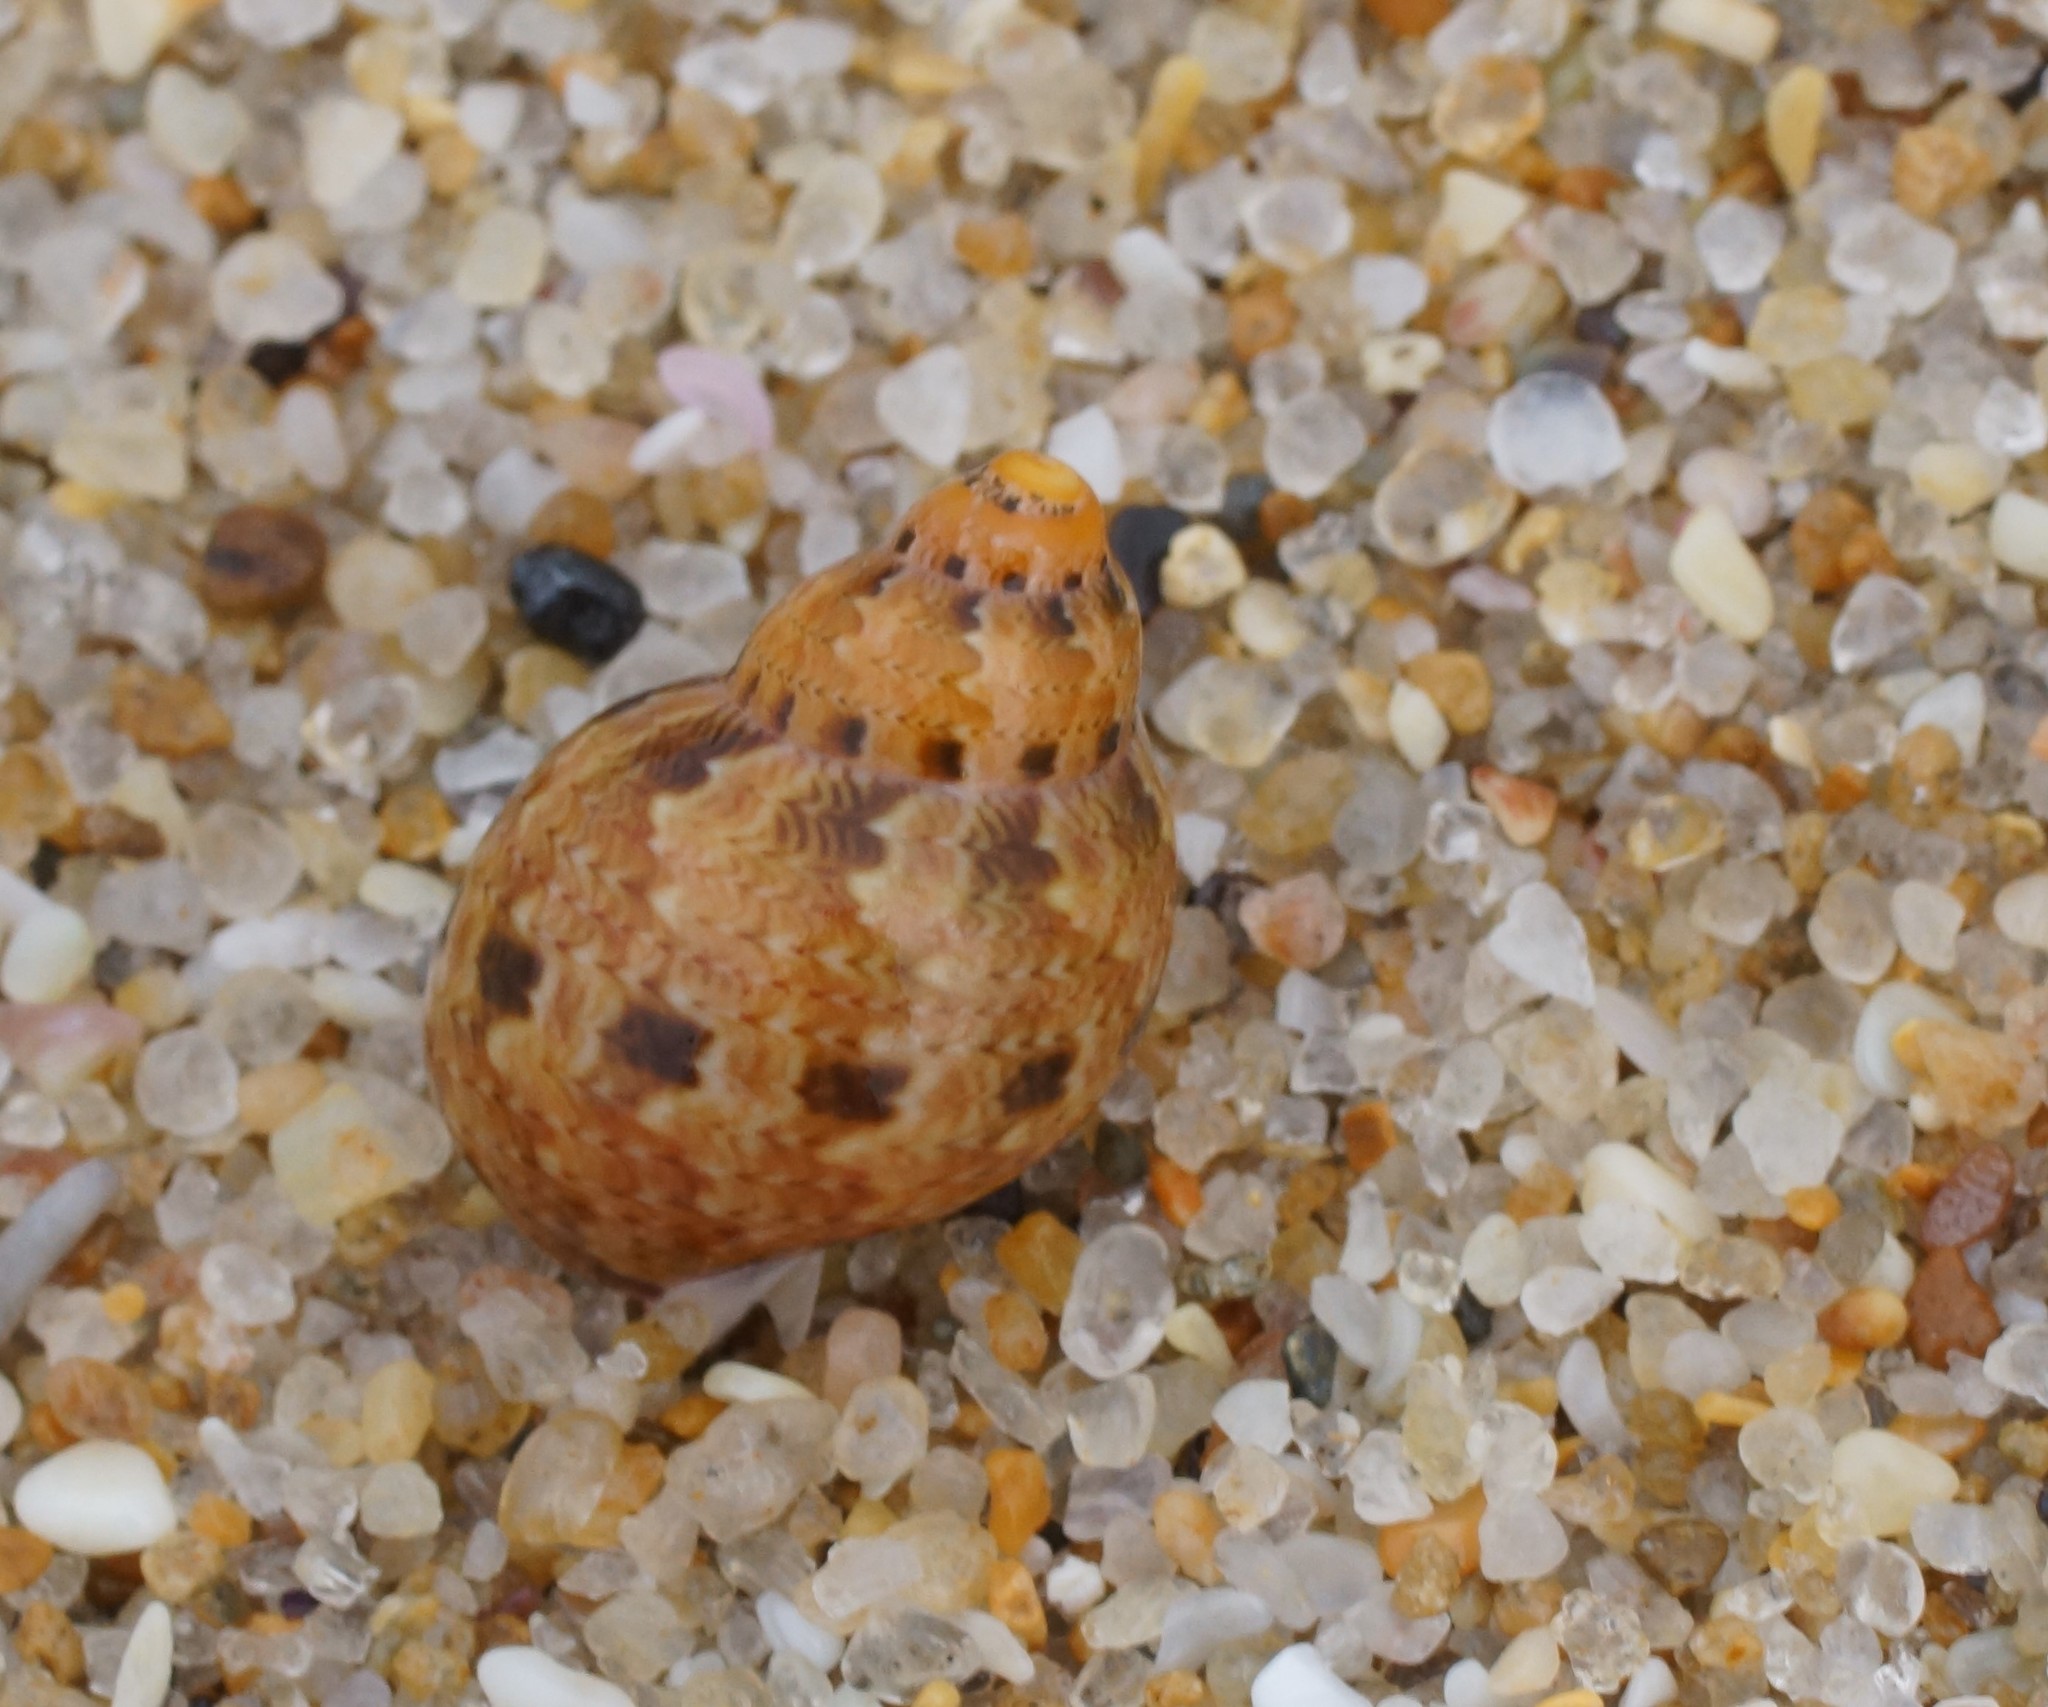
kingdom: Animalia
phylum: Mollusca
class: Gastropoda
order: Trochida
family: Phasianellidae
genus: Phasianella
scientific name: Phasianella ventricosa
